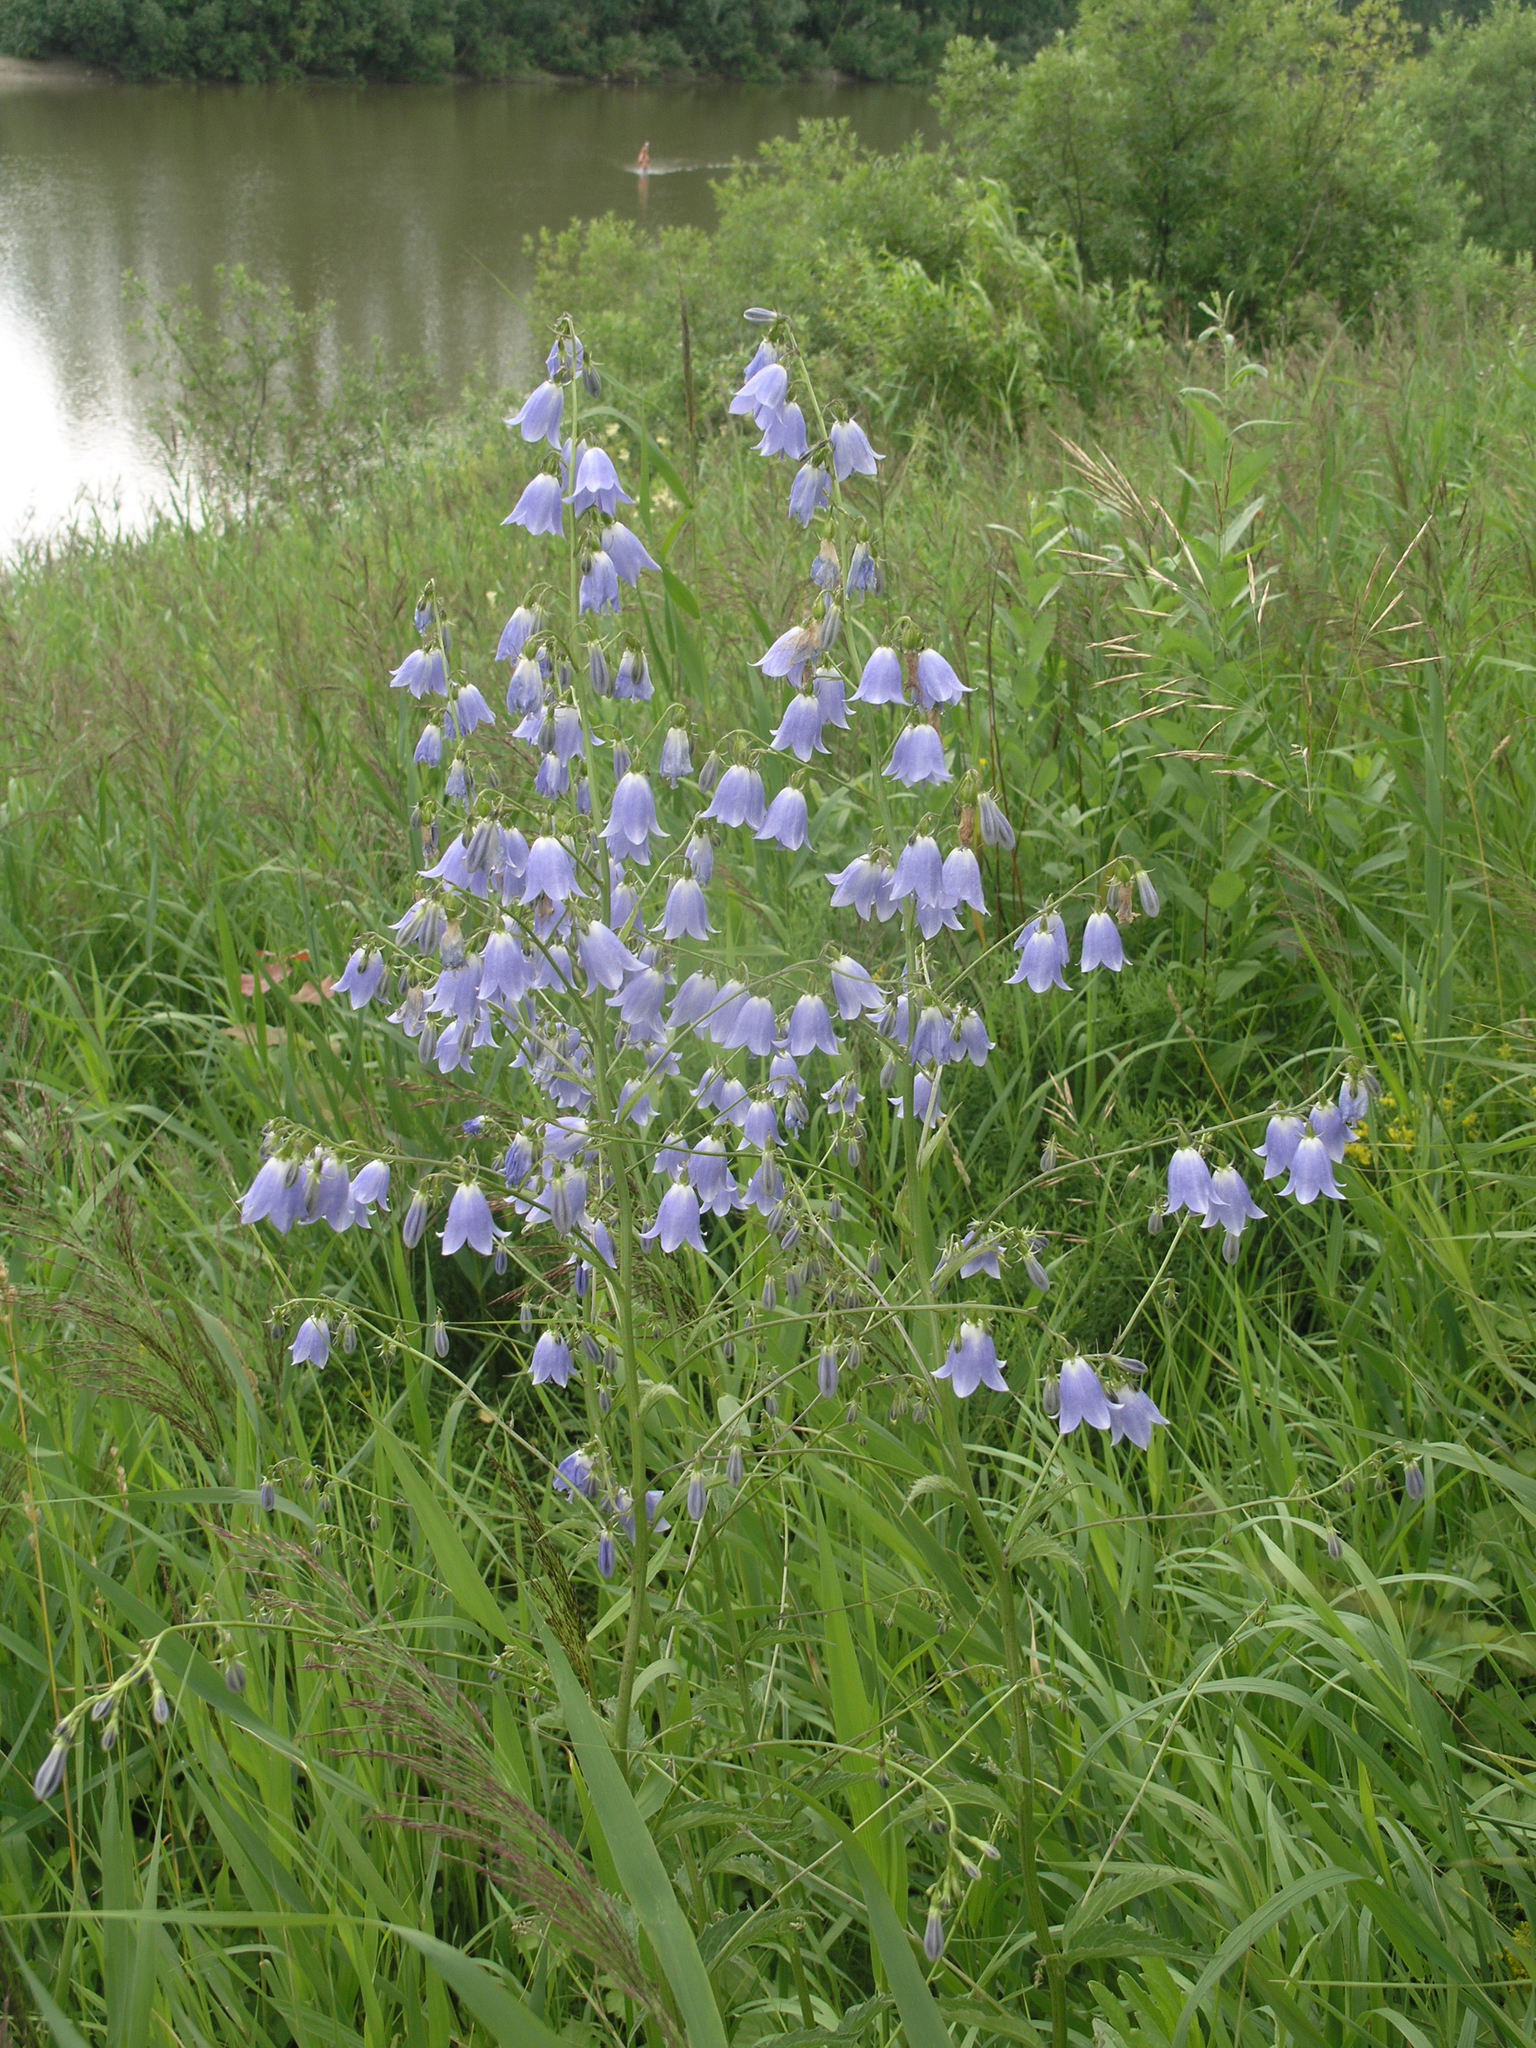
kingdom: Plantae
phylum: Tracheophyta
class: Magnoliopsida
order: Asterales
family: Campanulaceae
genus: Adenophora
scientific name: Adenophora liliifolia
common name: Lilyleaf ladybells
